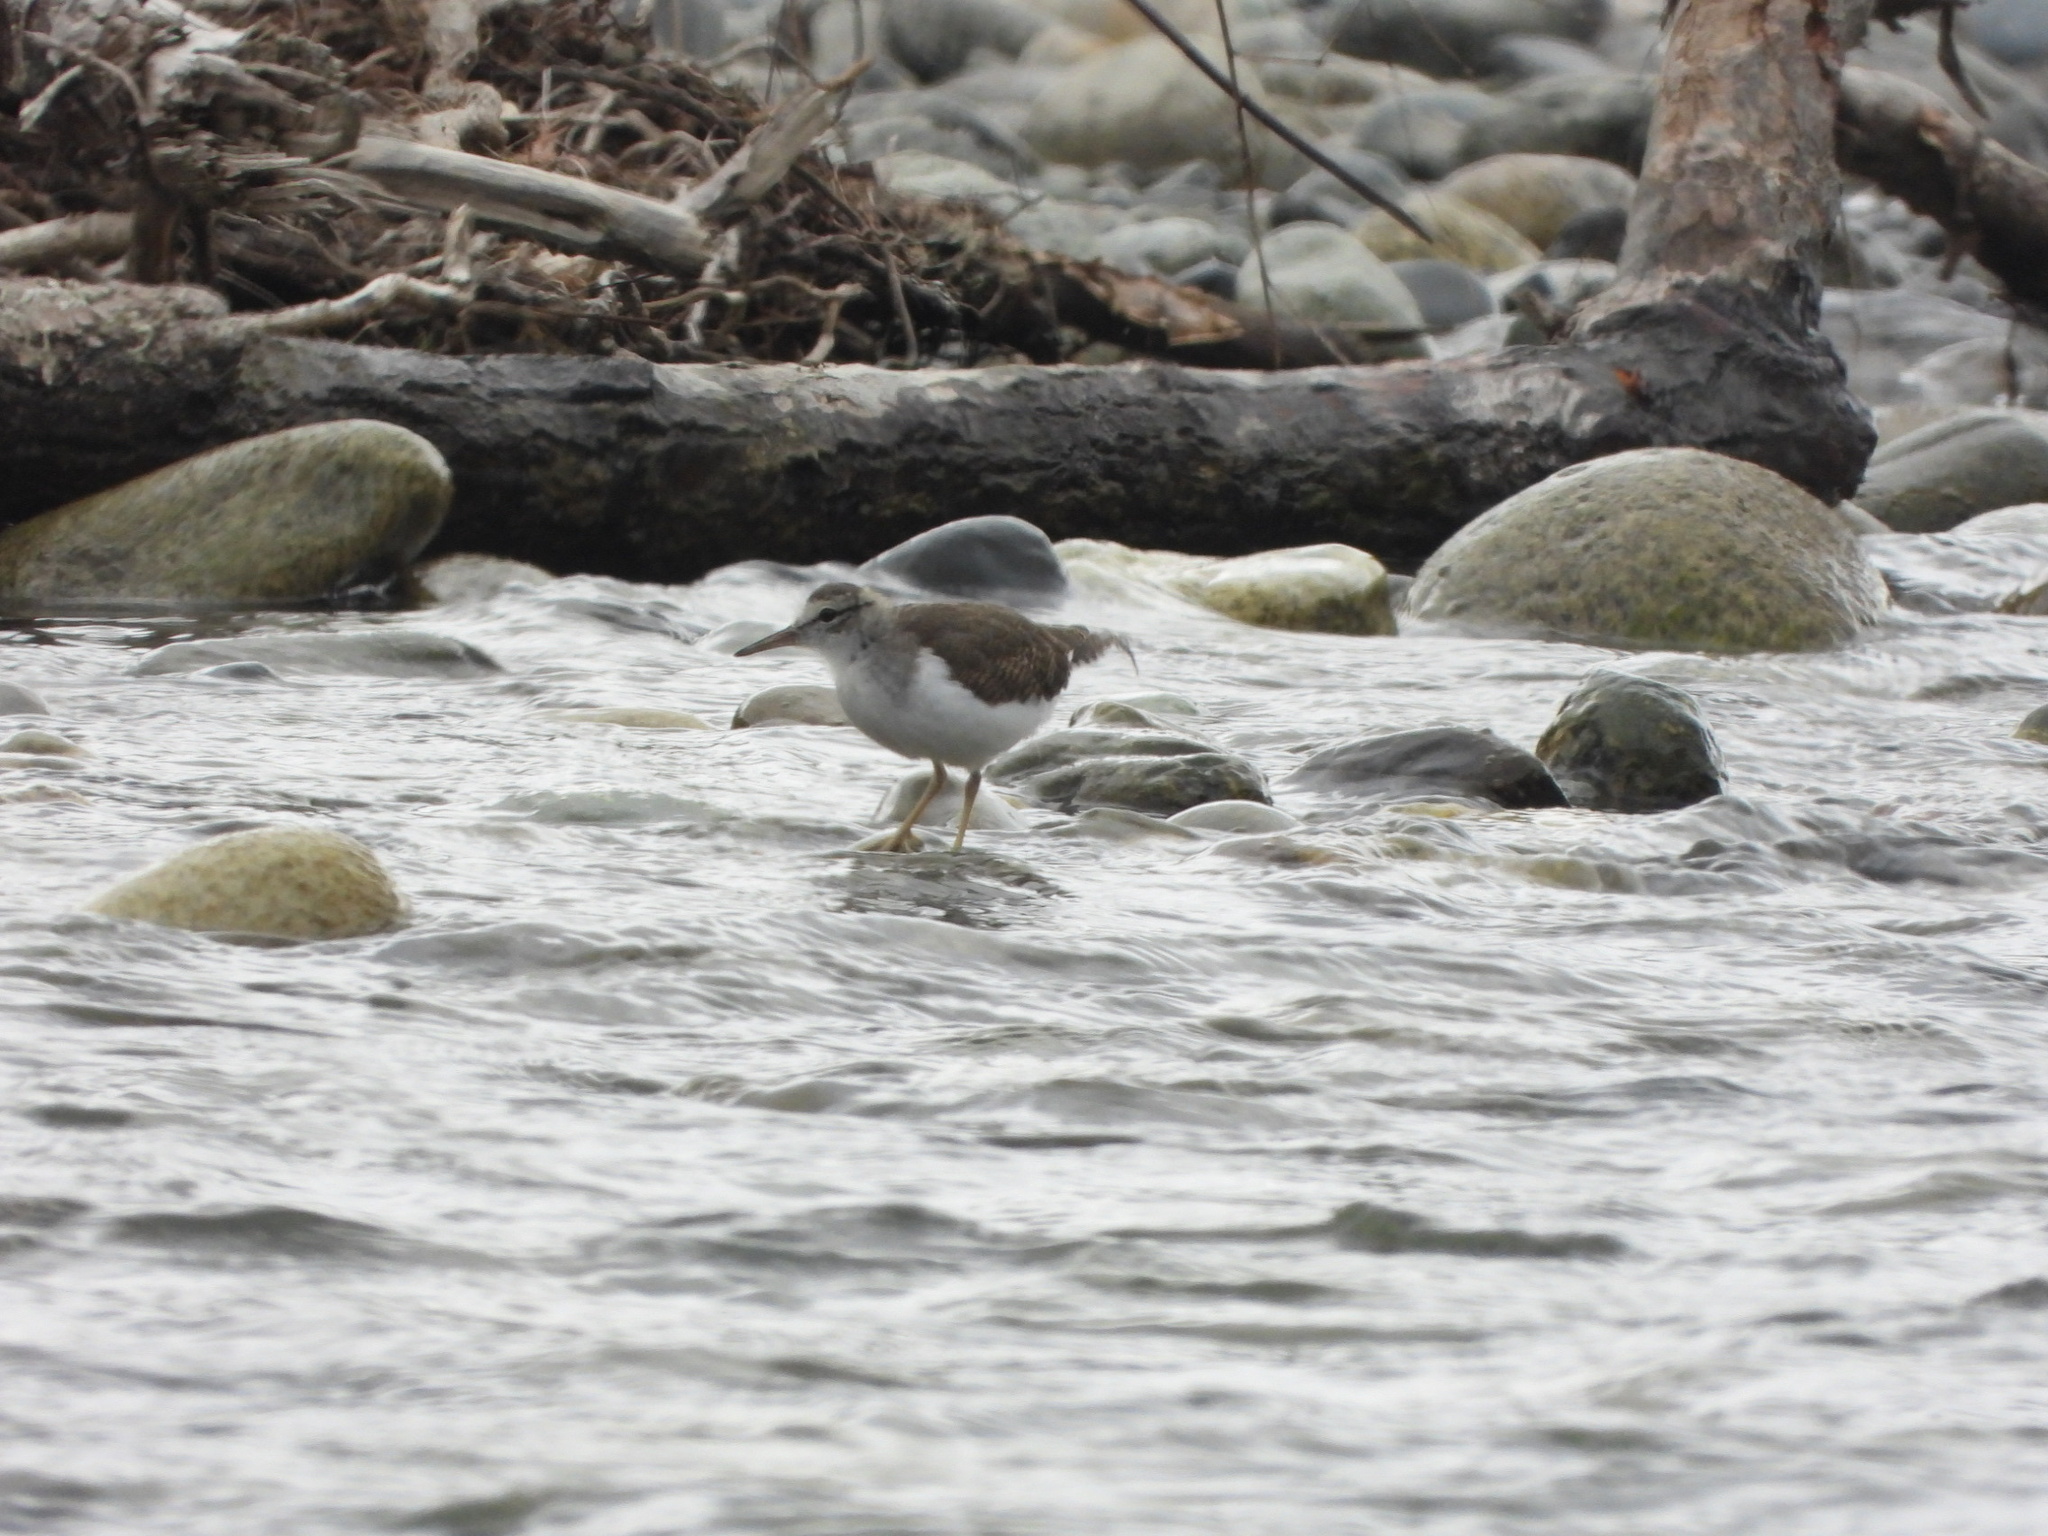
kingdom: Animalia
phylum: Chordata
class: Aves
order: Charadriiformes
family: Scolopacidae
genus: Actitis
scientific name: Actitis macularius
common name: Spotted sandpiper
